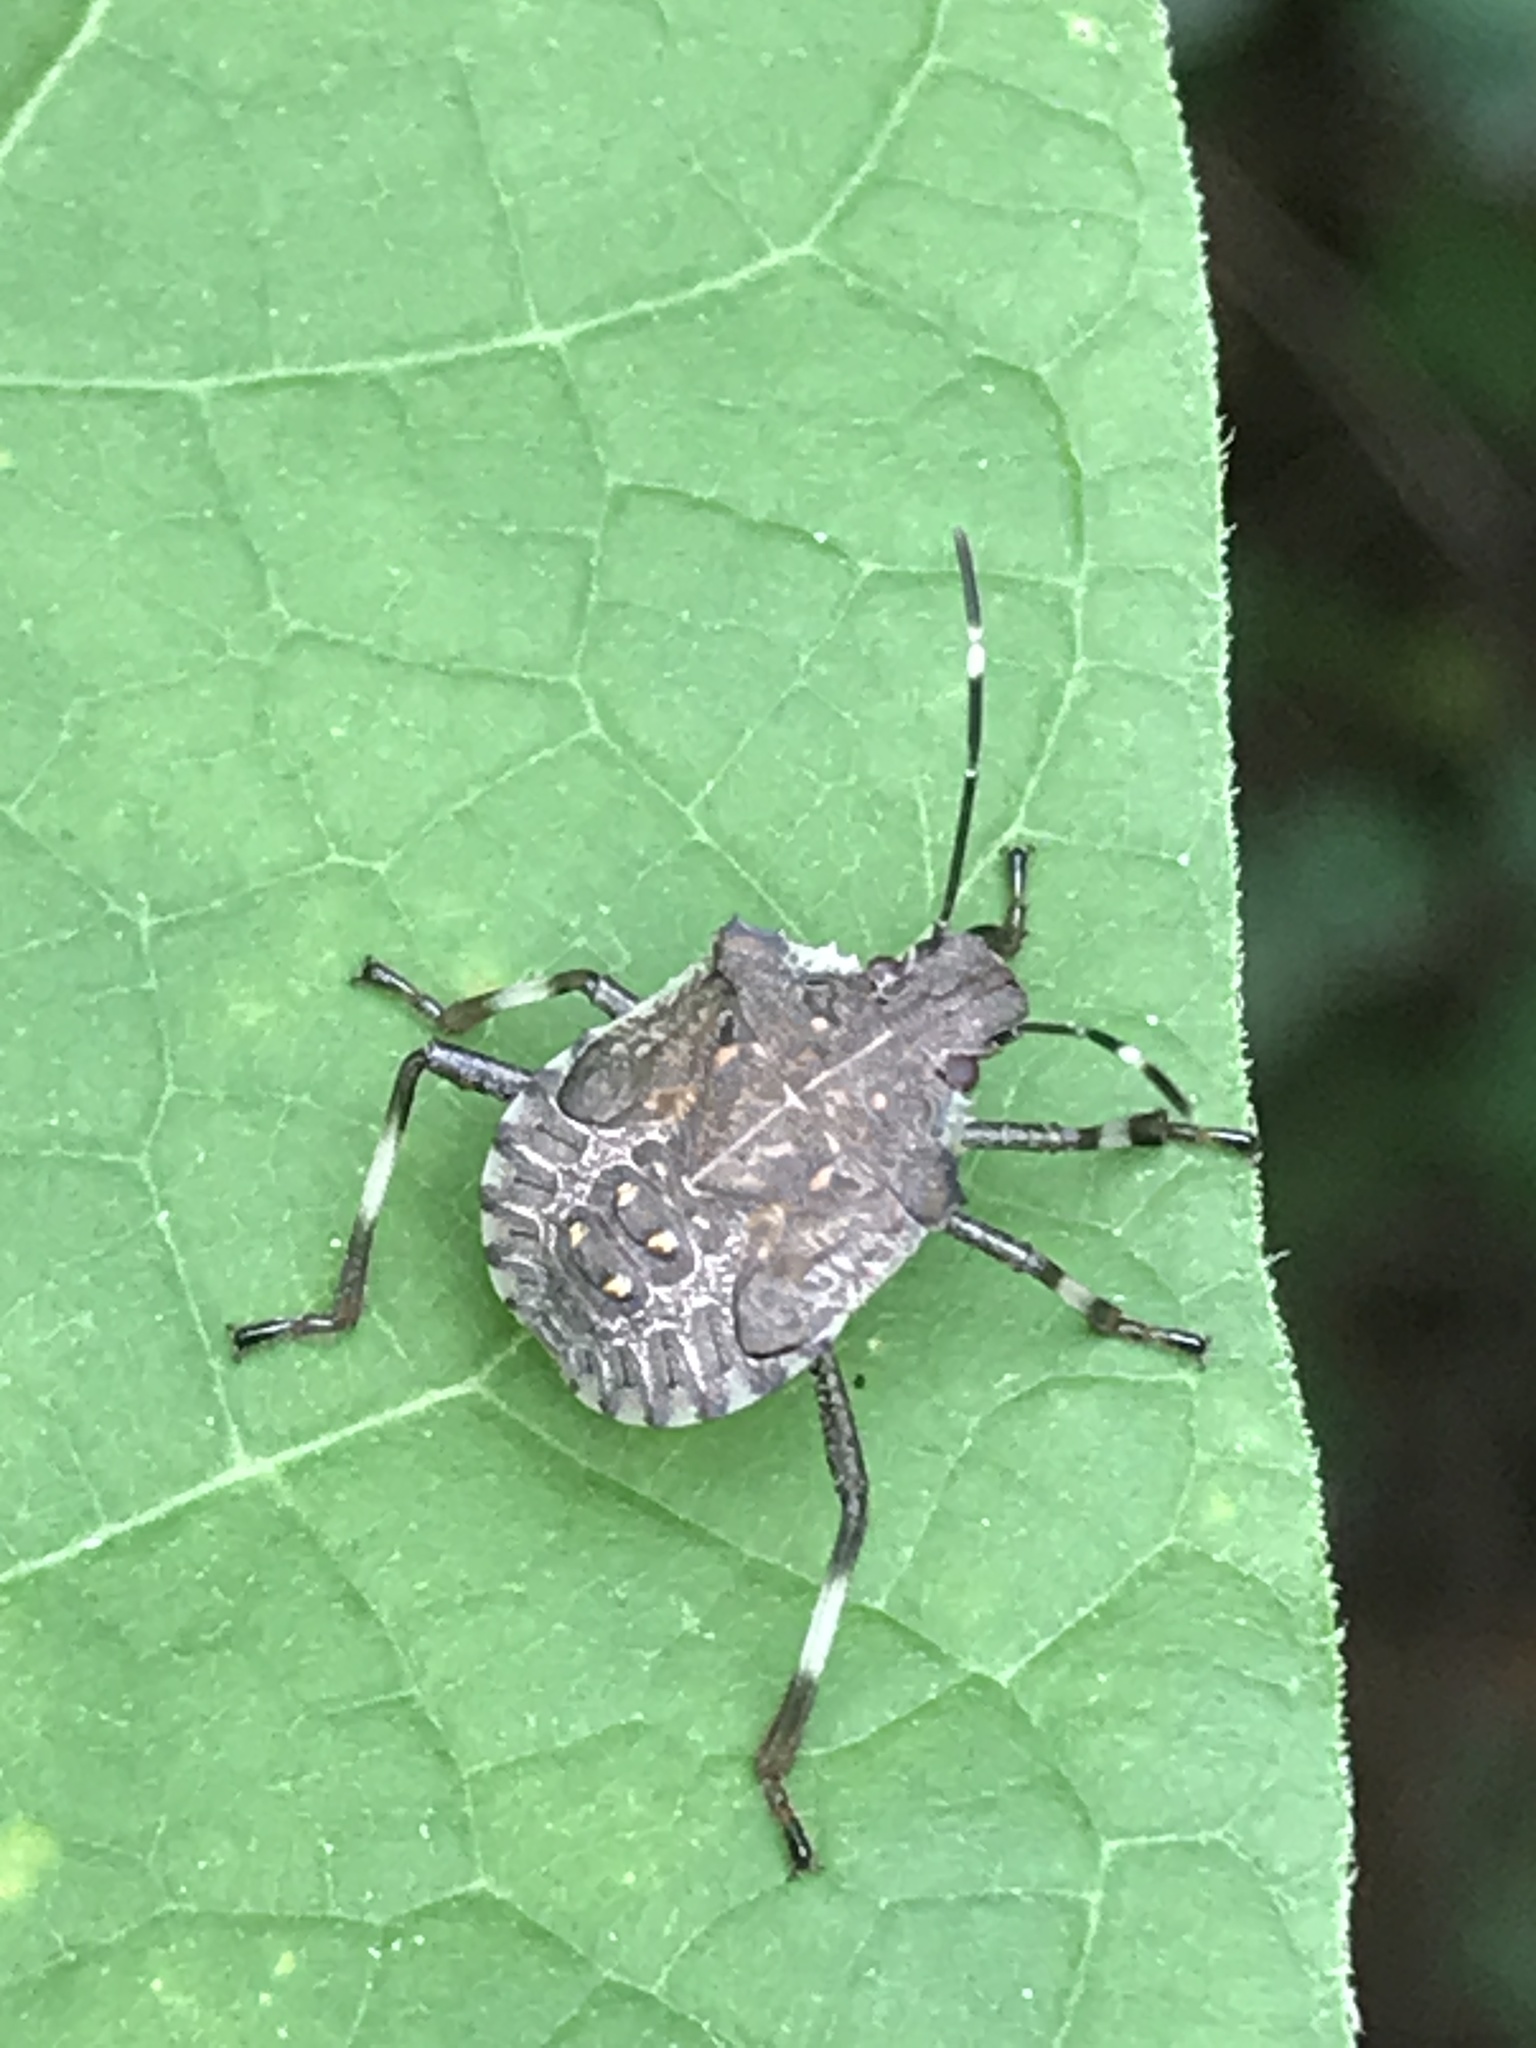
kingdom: Animalia
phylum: Arthropoda
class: Insecta
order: Hemiptera
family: Pentatomidae
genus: Halyomorpha
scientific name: Halyomorpha halys
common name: Brown marmorated stink bug
